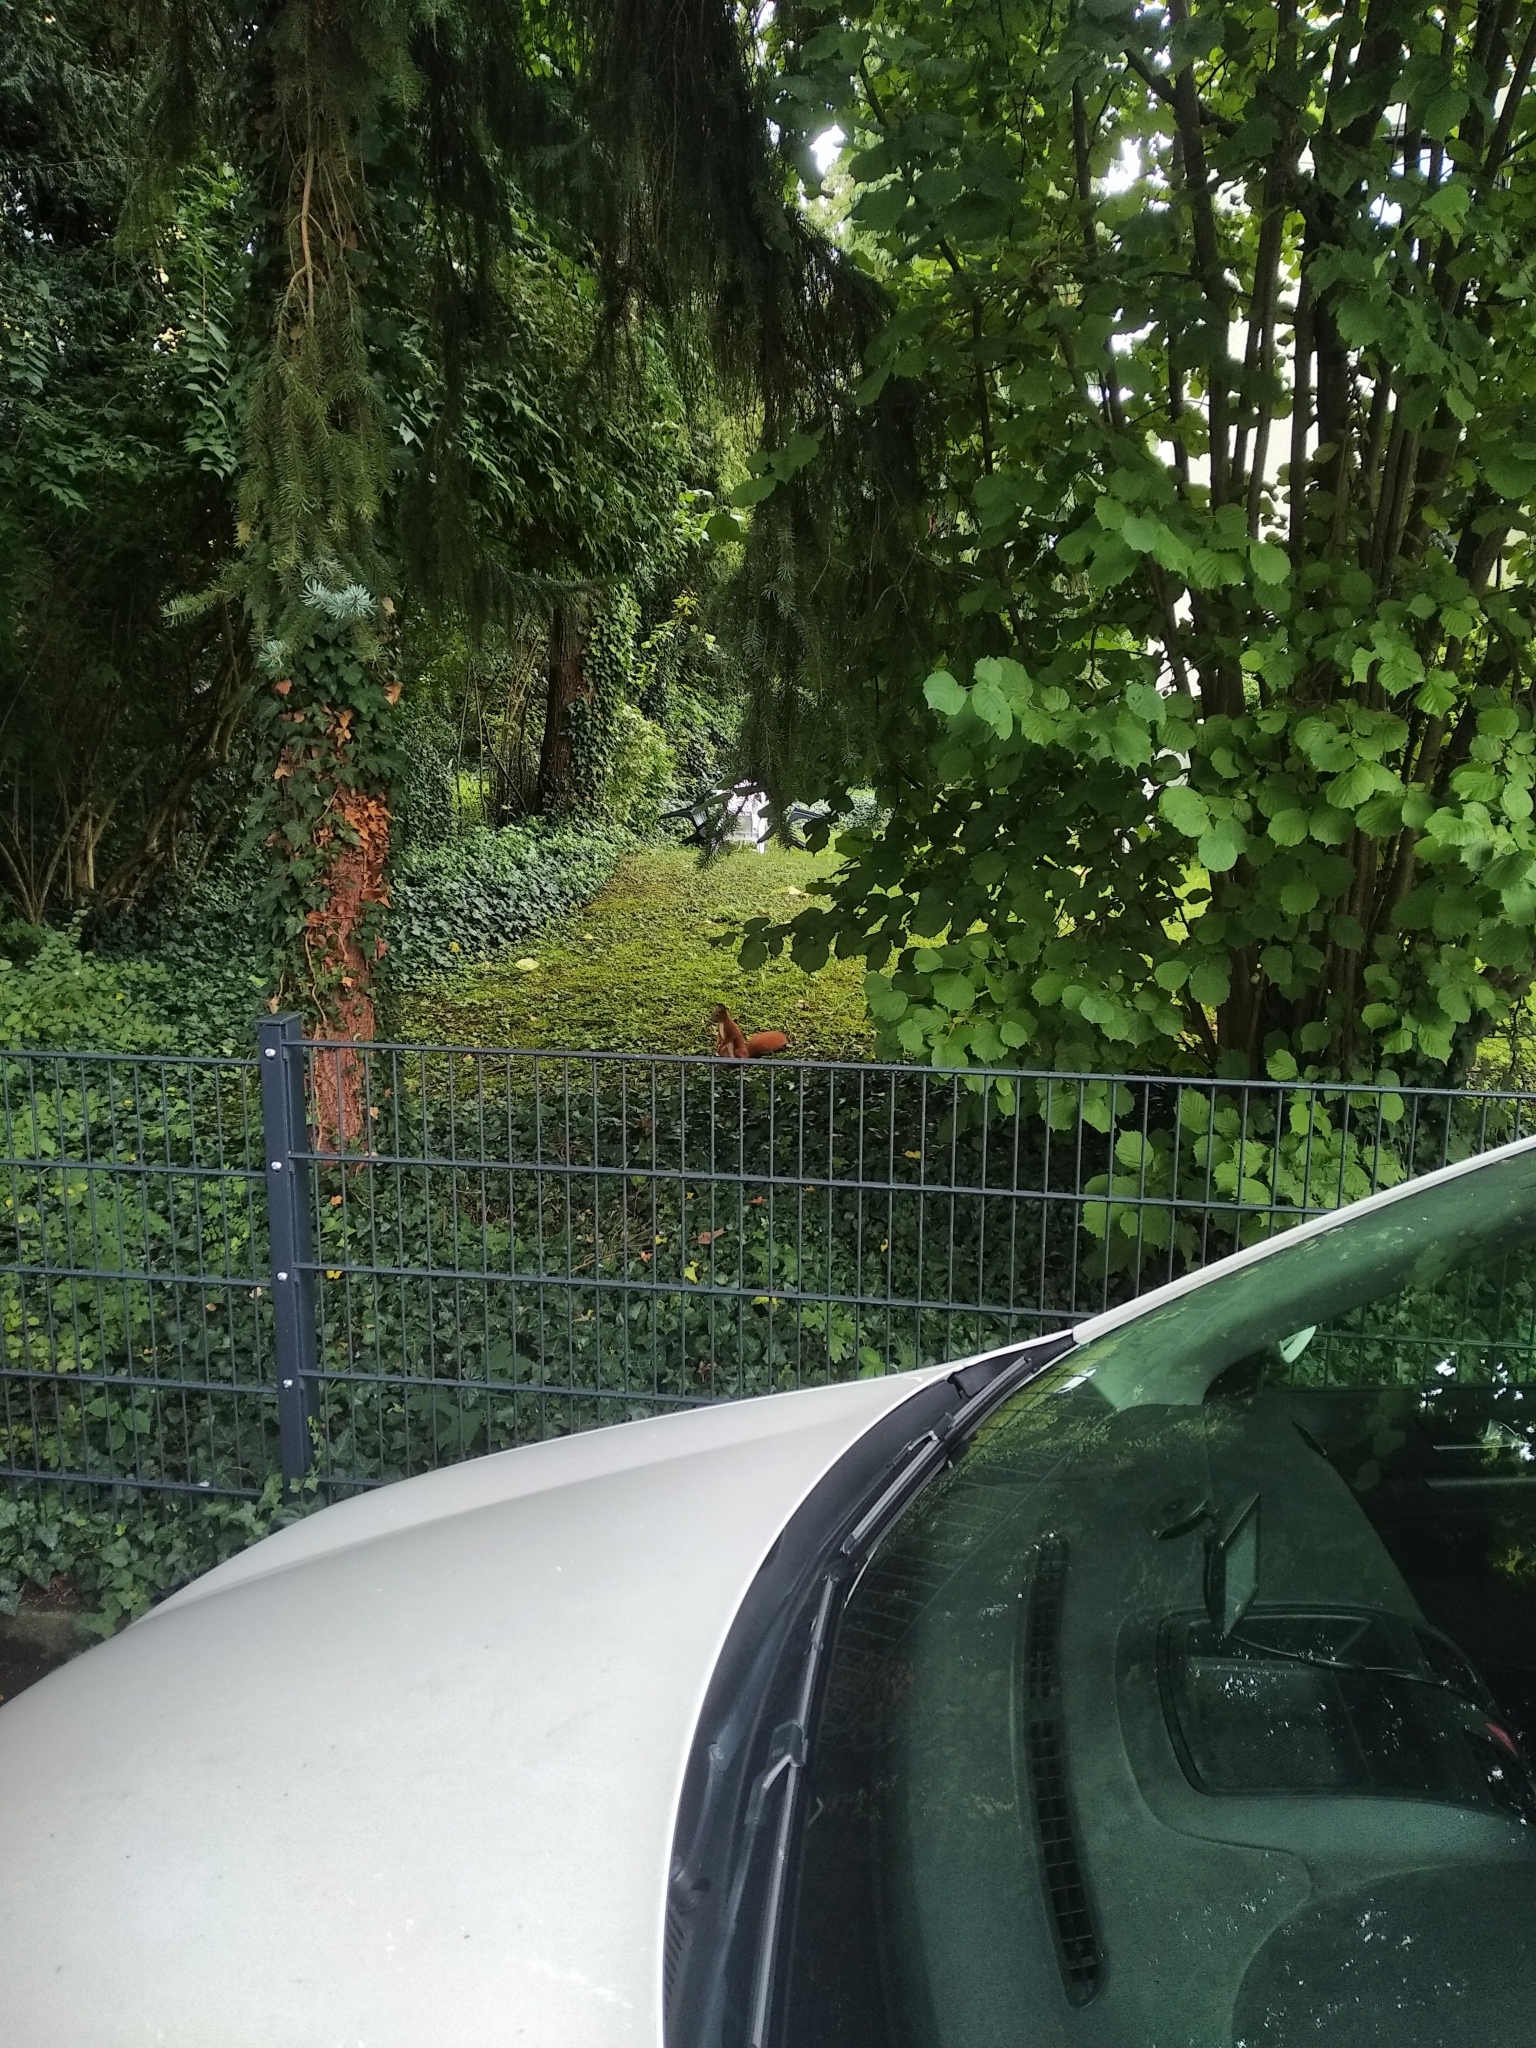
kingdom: Animalia
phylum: Chordata
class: Mammalia
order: Rodentia
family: Sciuridae
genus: Sciurus
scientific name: Sciurus vulgaris
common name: Eurasian red squirrel
